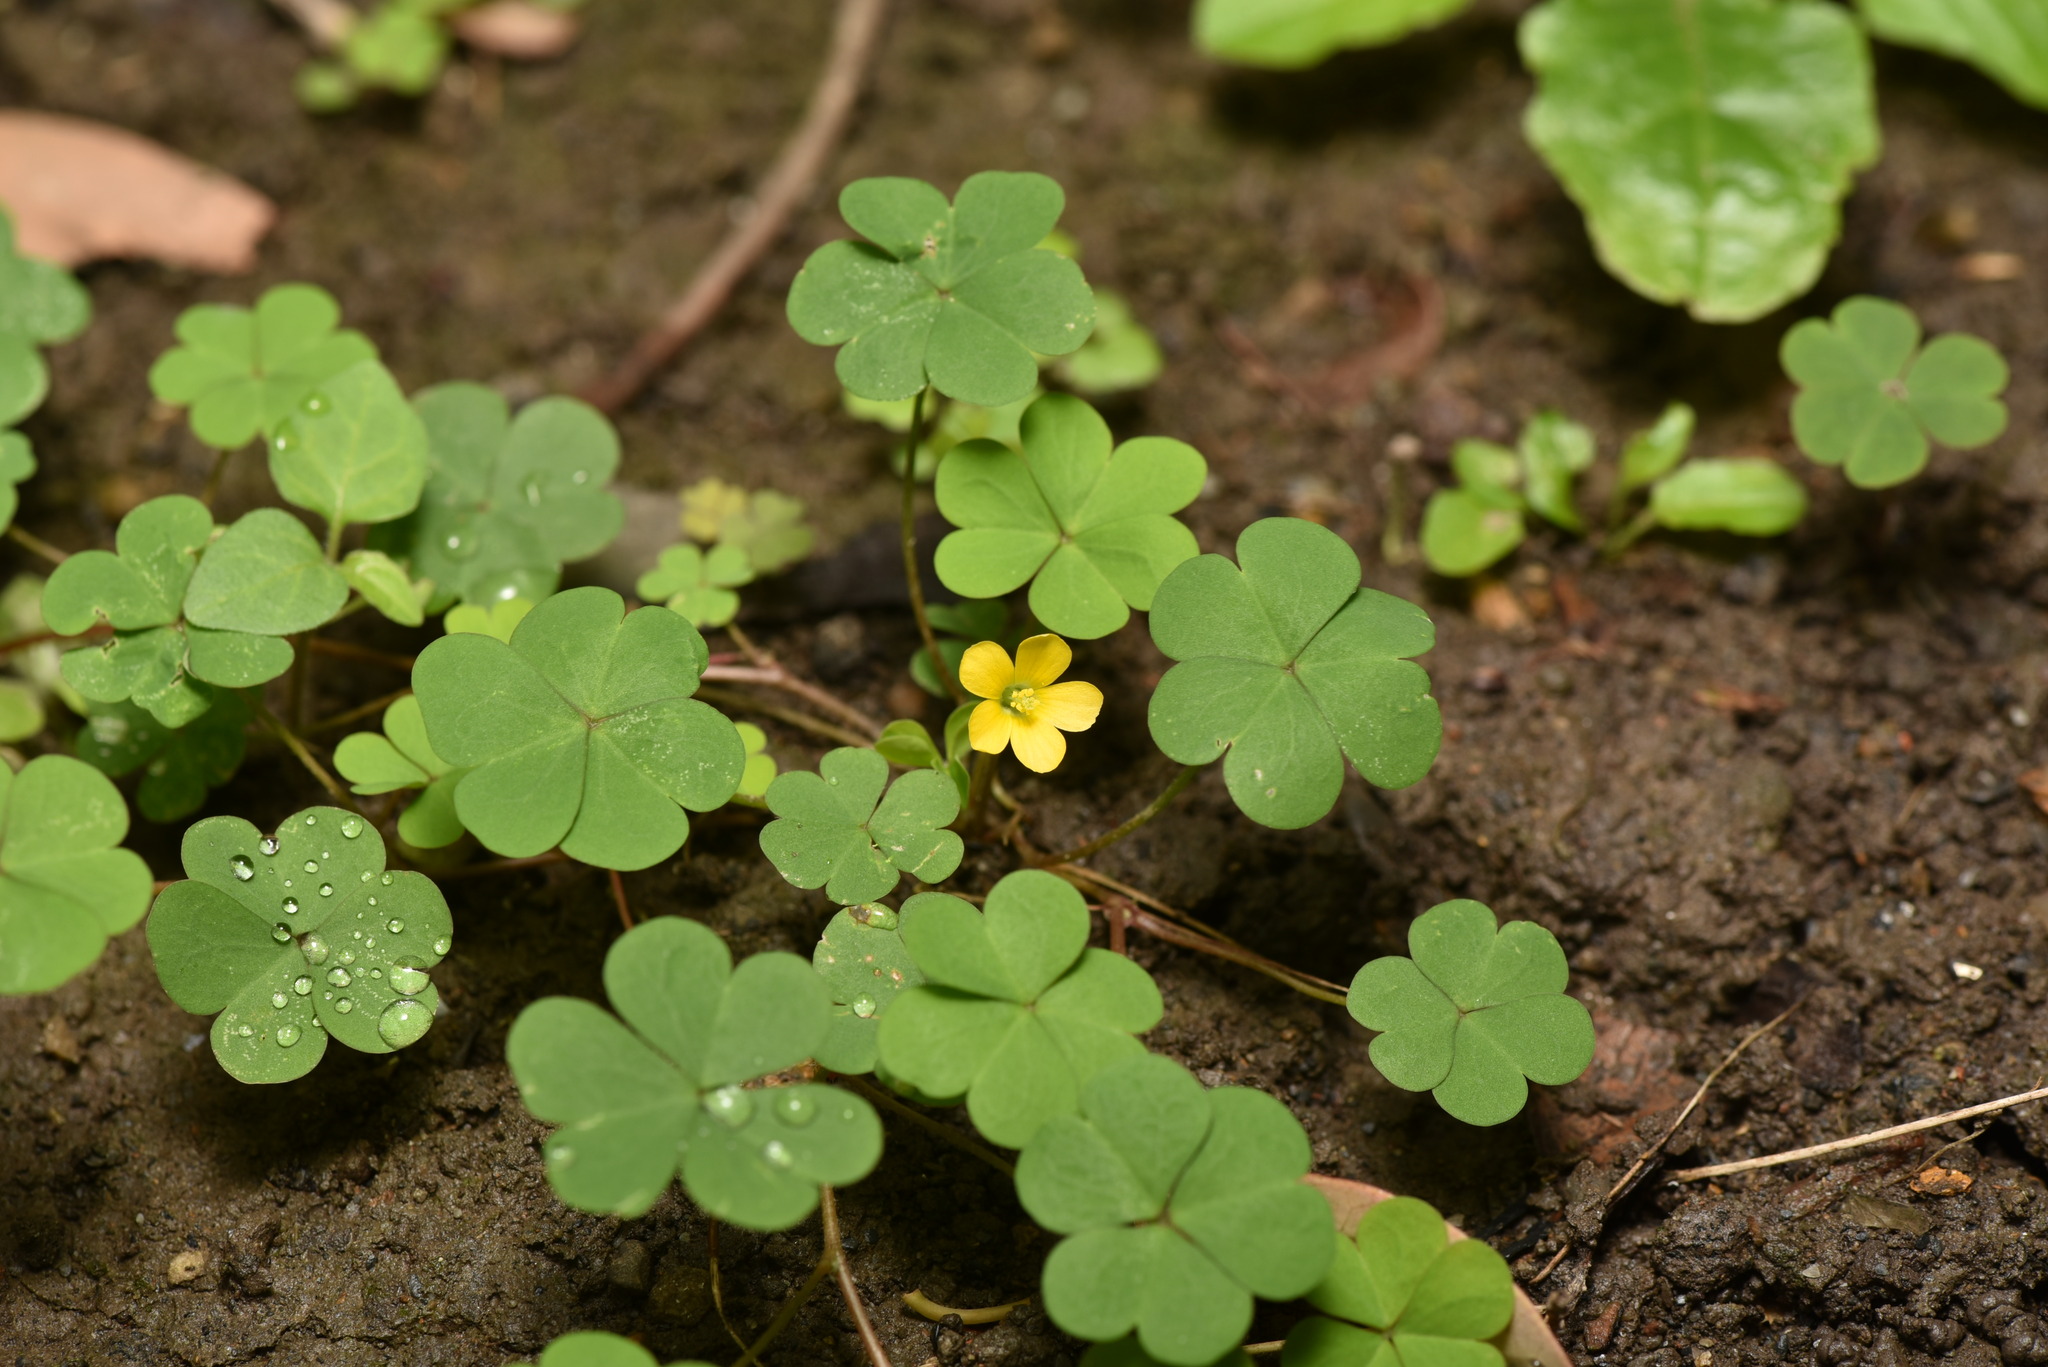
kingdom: Plantae
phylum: Tracheophyta
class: Magnoliopsida
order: Oxalidales
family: Oxalidaceae
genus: Oxalis
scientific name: Oxalis corniculata
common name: Procumbent yellow-sorrel
